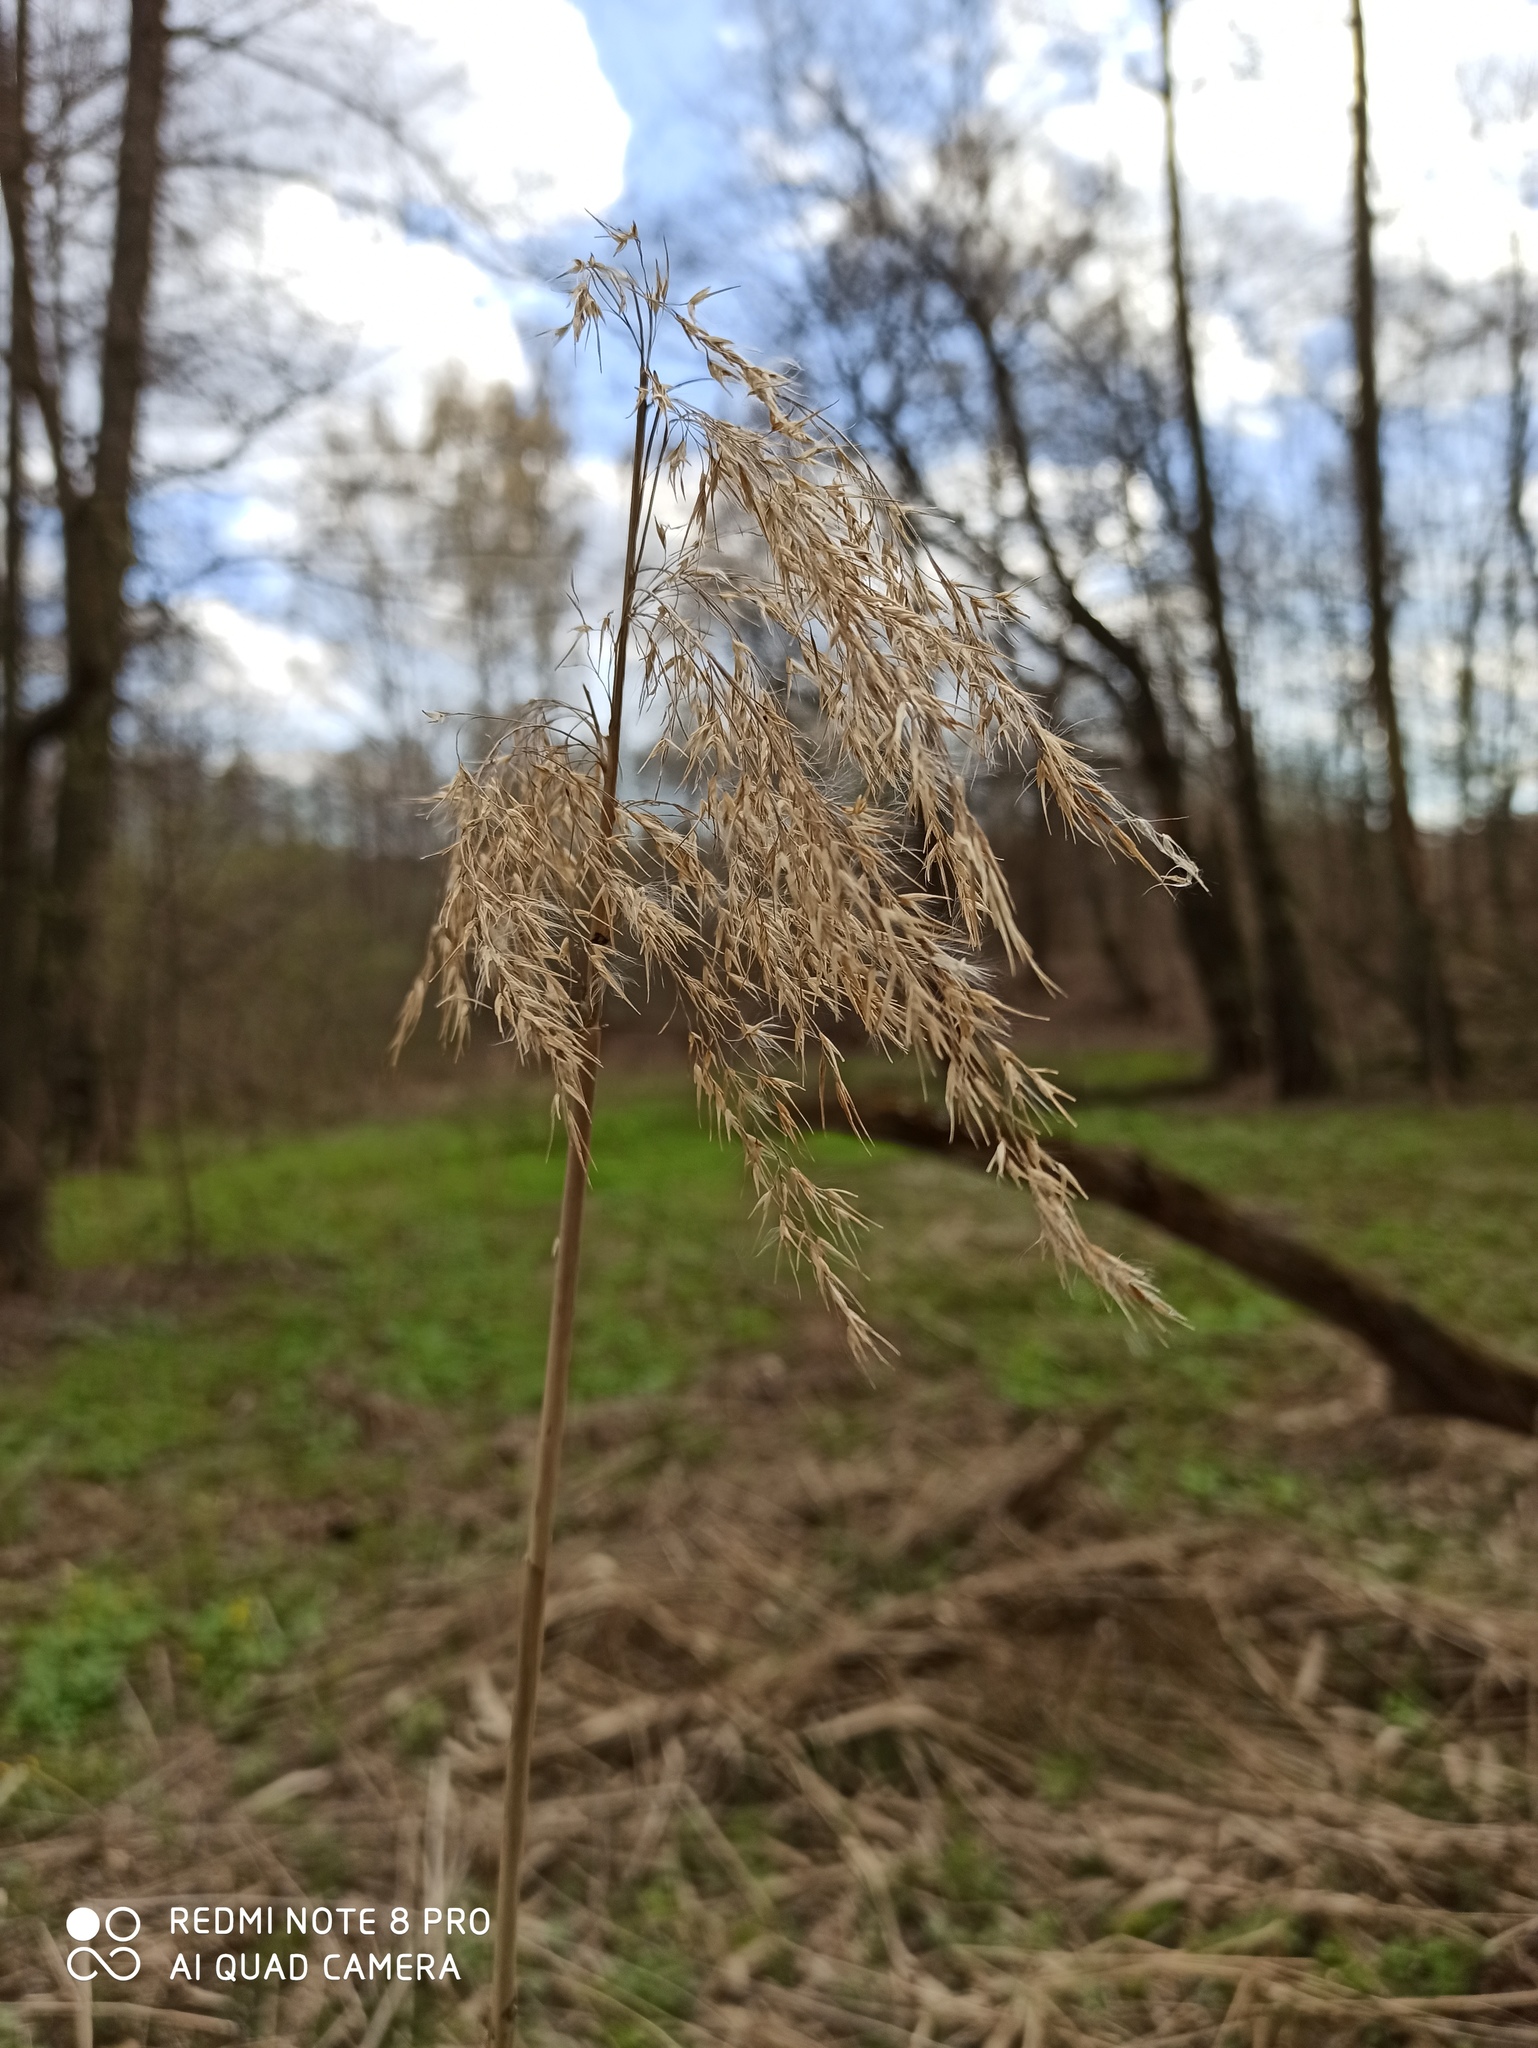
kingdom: Plantae
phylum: Tracheophyta
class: Liliopsida
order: Poales
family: Poaceae
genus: Phragmites
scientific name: Phragmites australis
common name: Common reed
